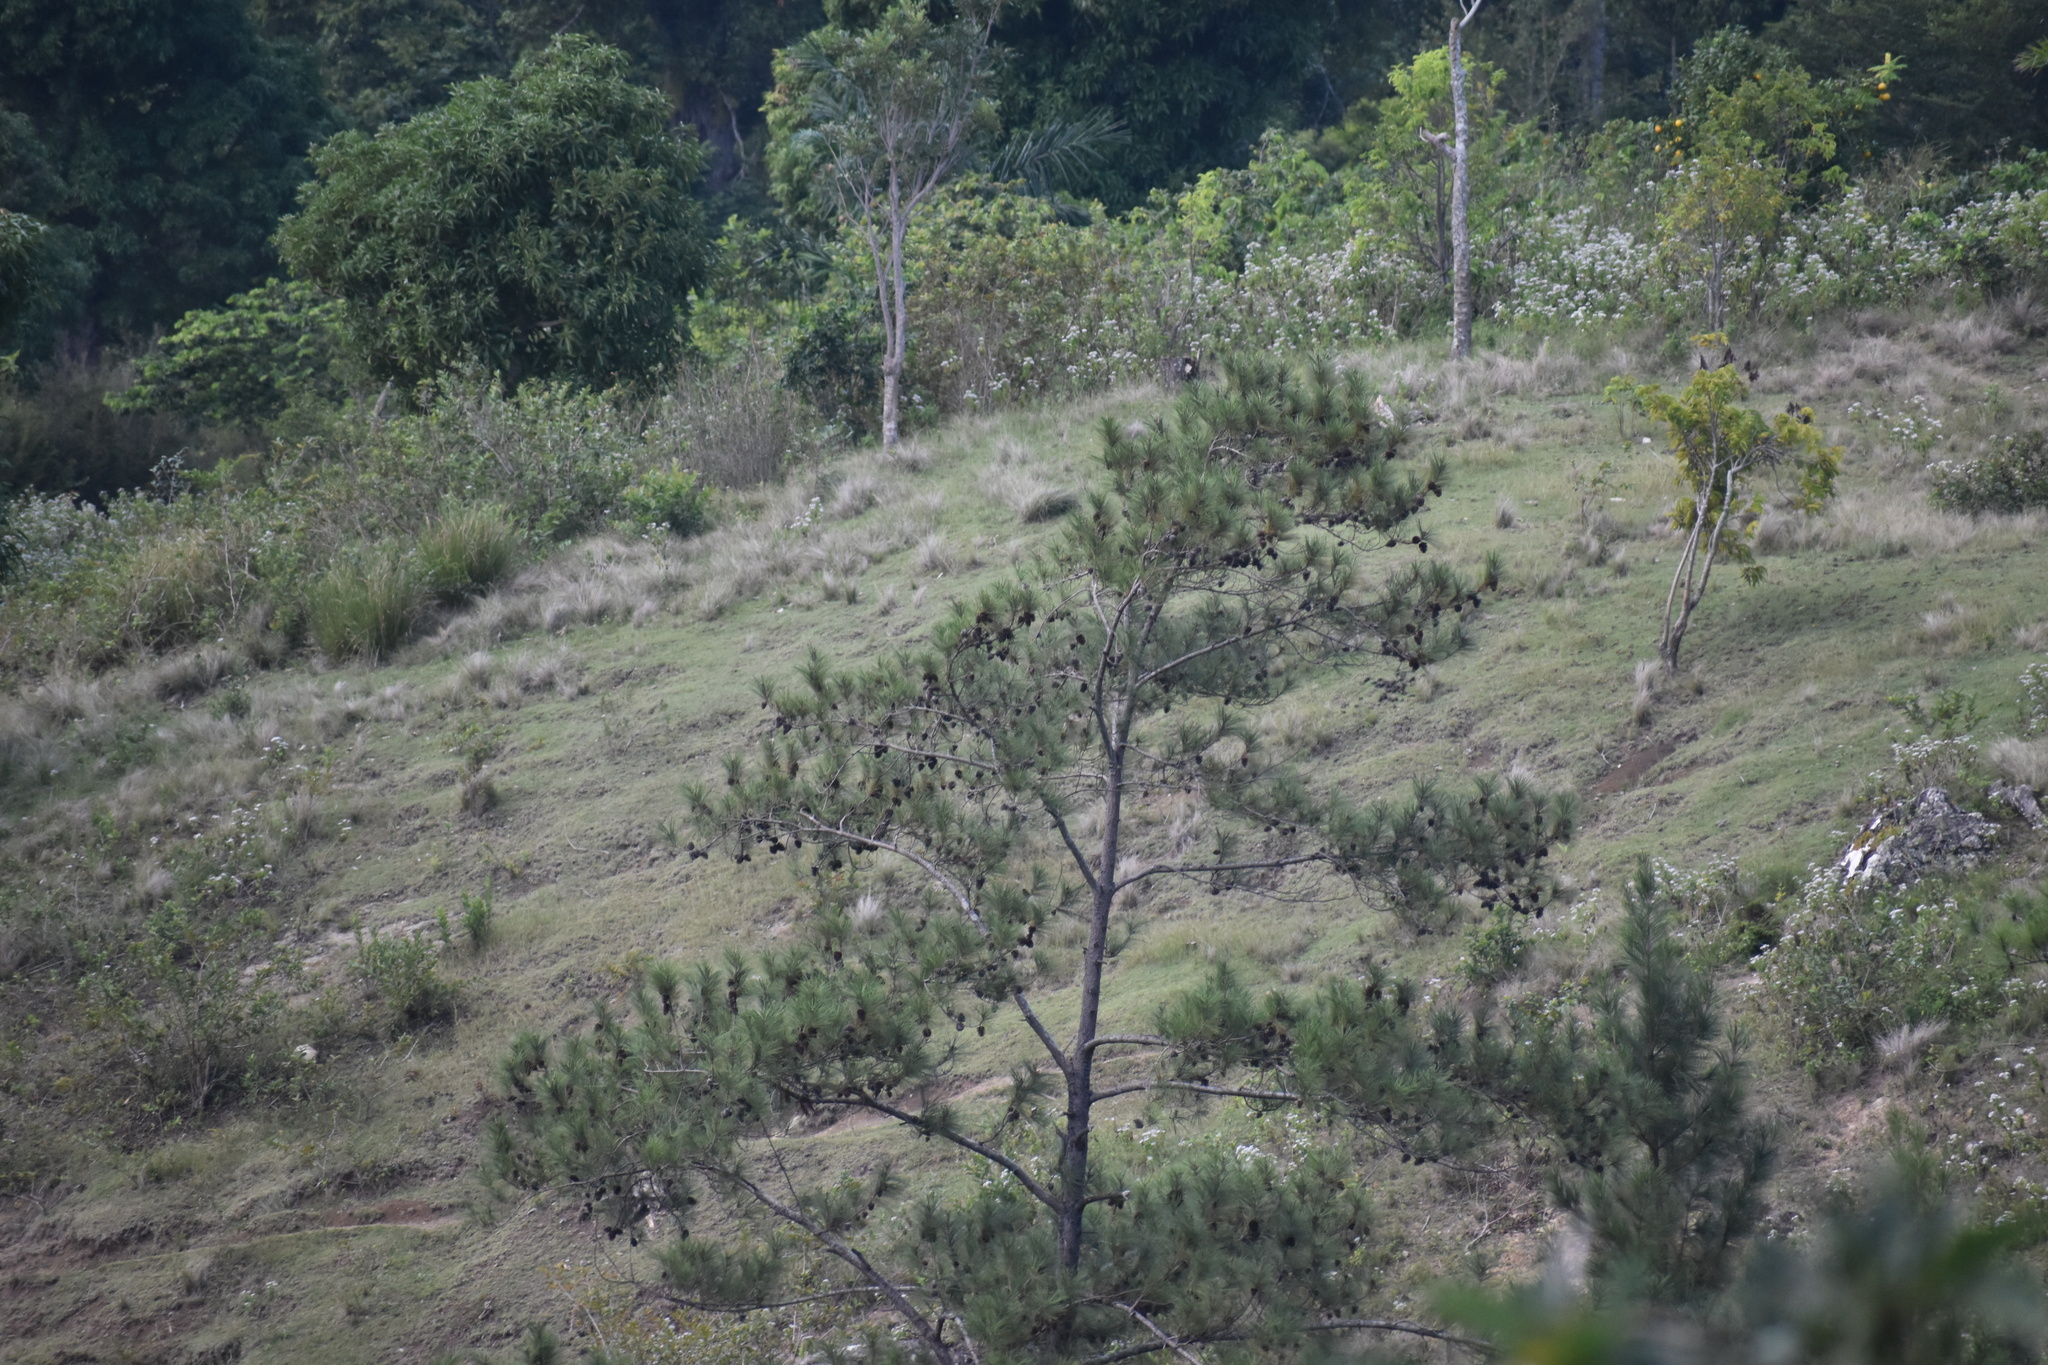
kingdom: Plantae
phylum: Tracheophyta
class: Pinopsida
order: Pinales
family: Pinaceae
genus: Pinus
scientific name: Pinus occidentalis
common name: Hispaniolan pine
